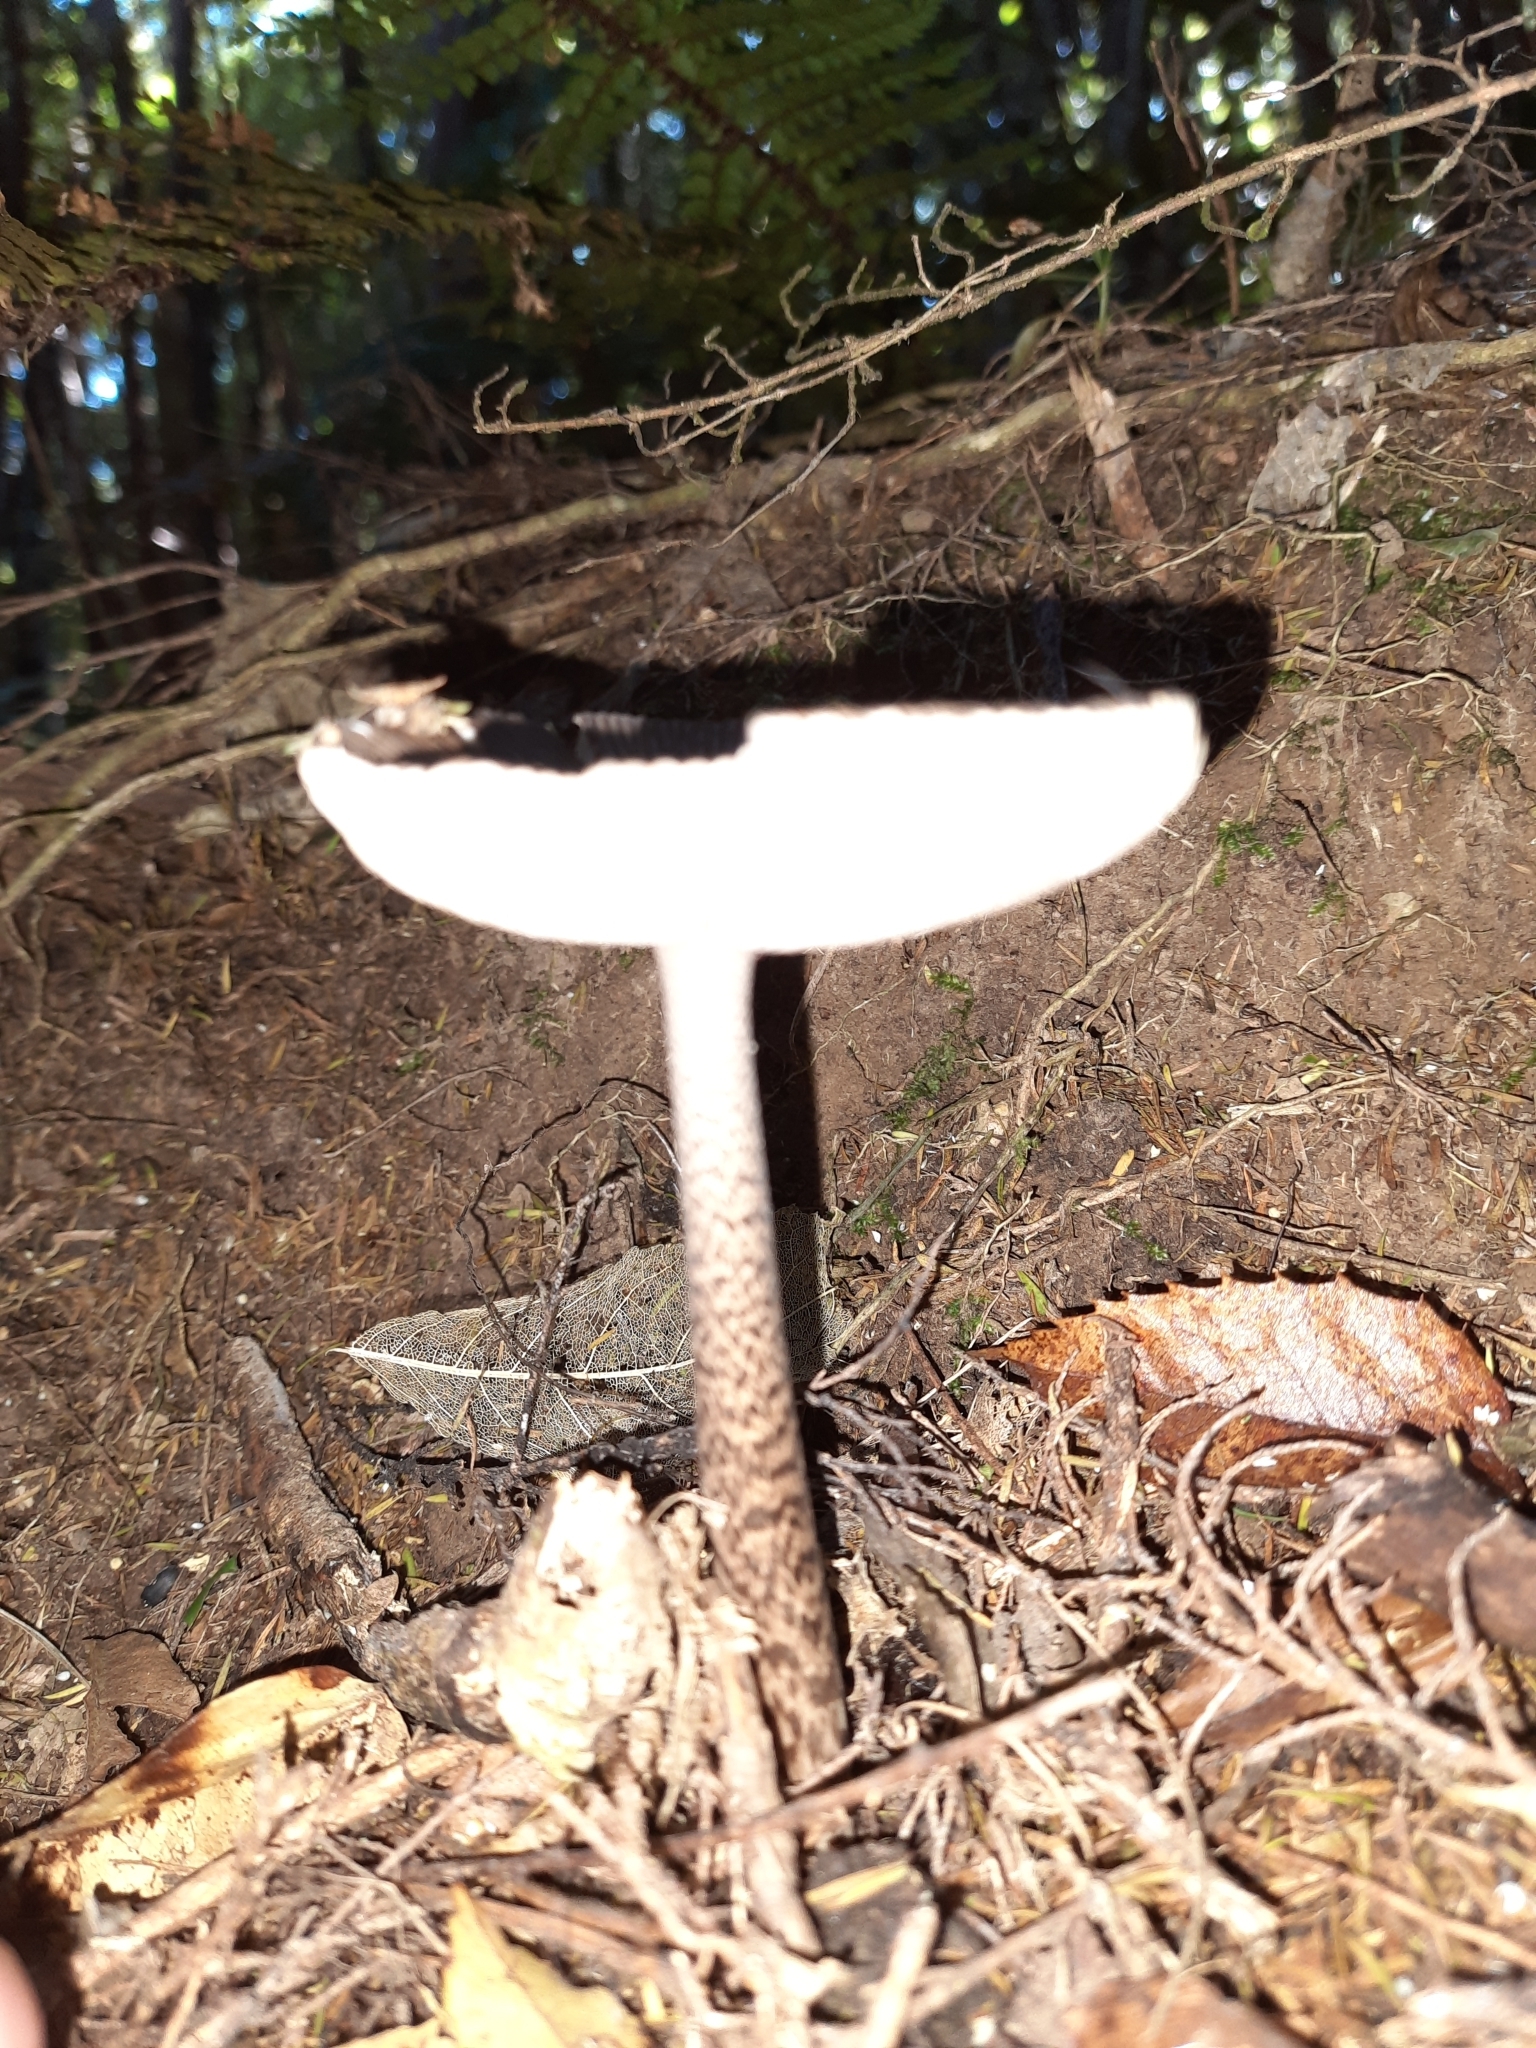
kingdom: Fungi
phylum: Basidiomycota
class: Agaricomycetes
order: Agaricales
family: Amanitaceae
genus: Amanita
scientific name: Amanita pekeoides
